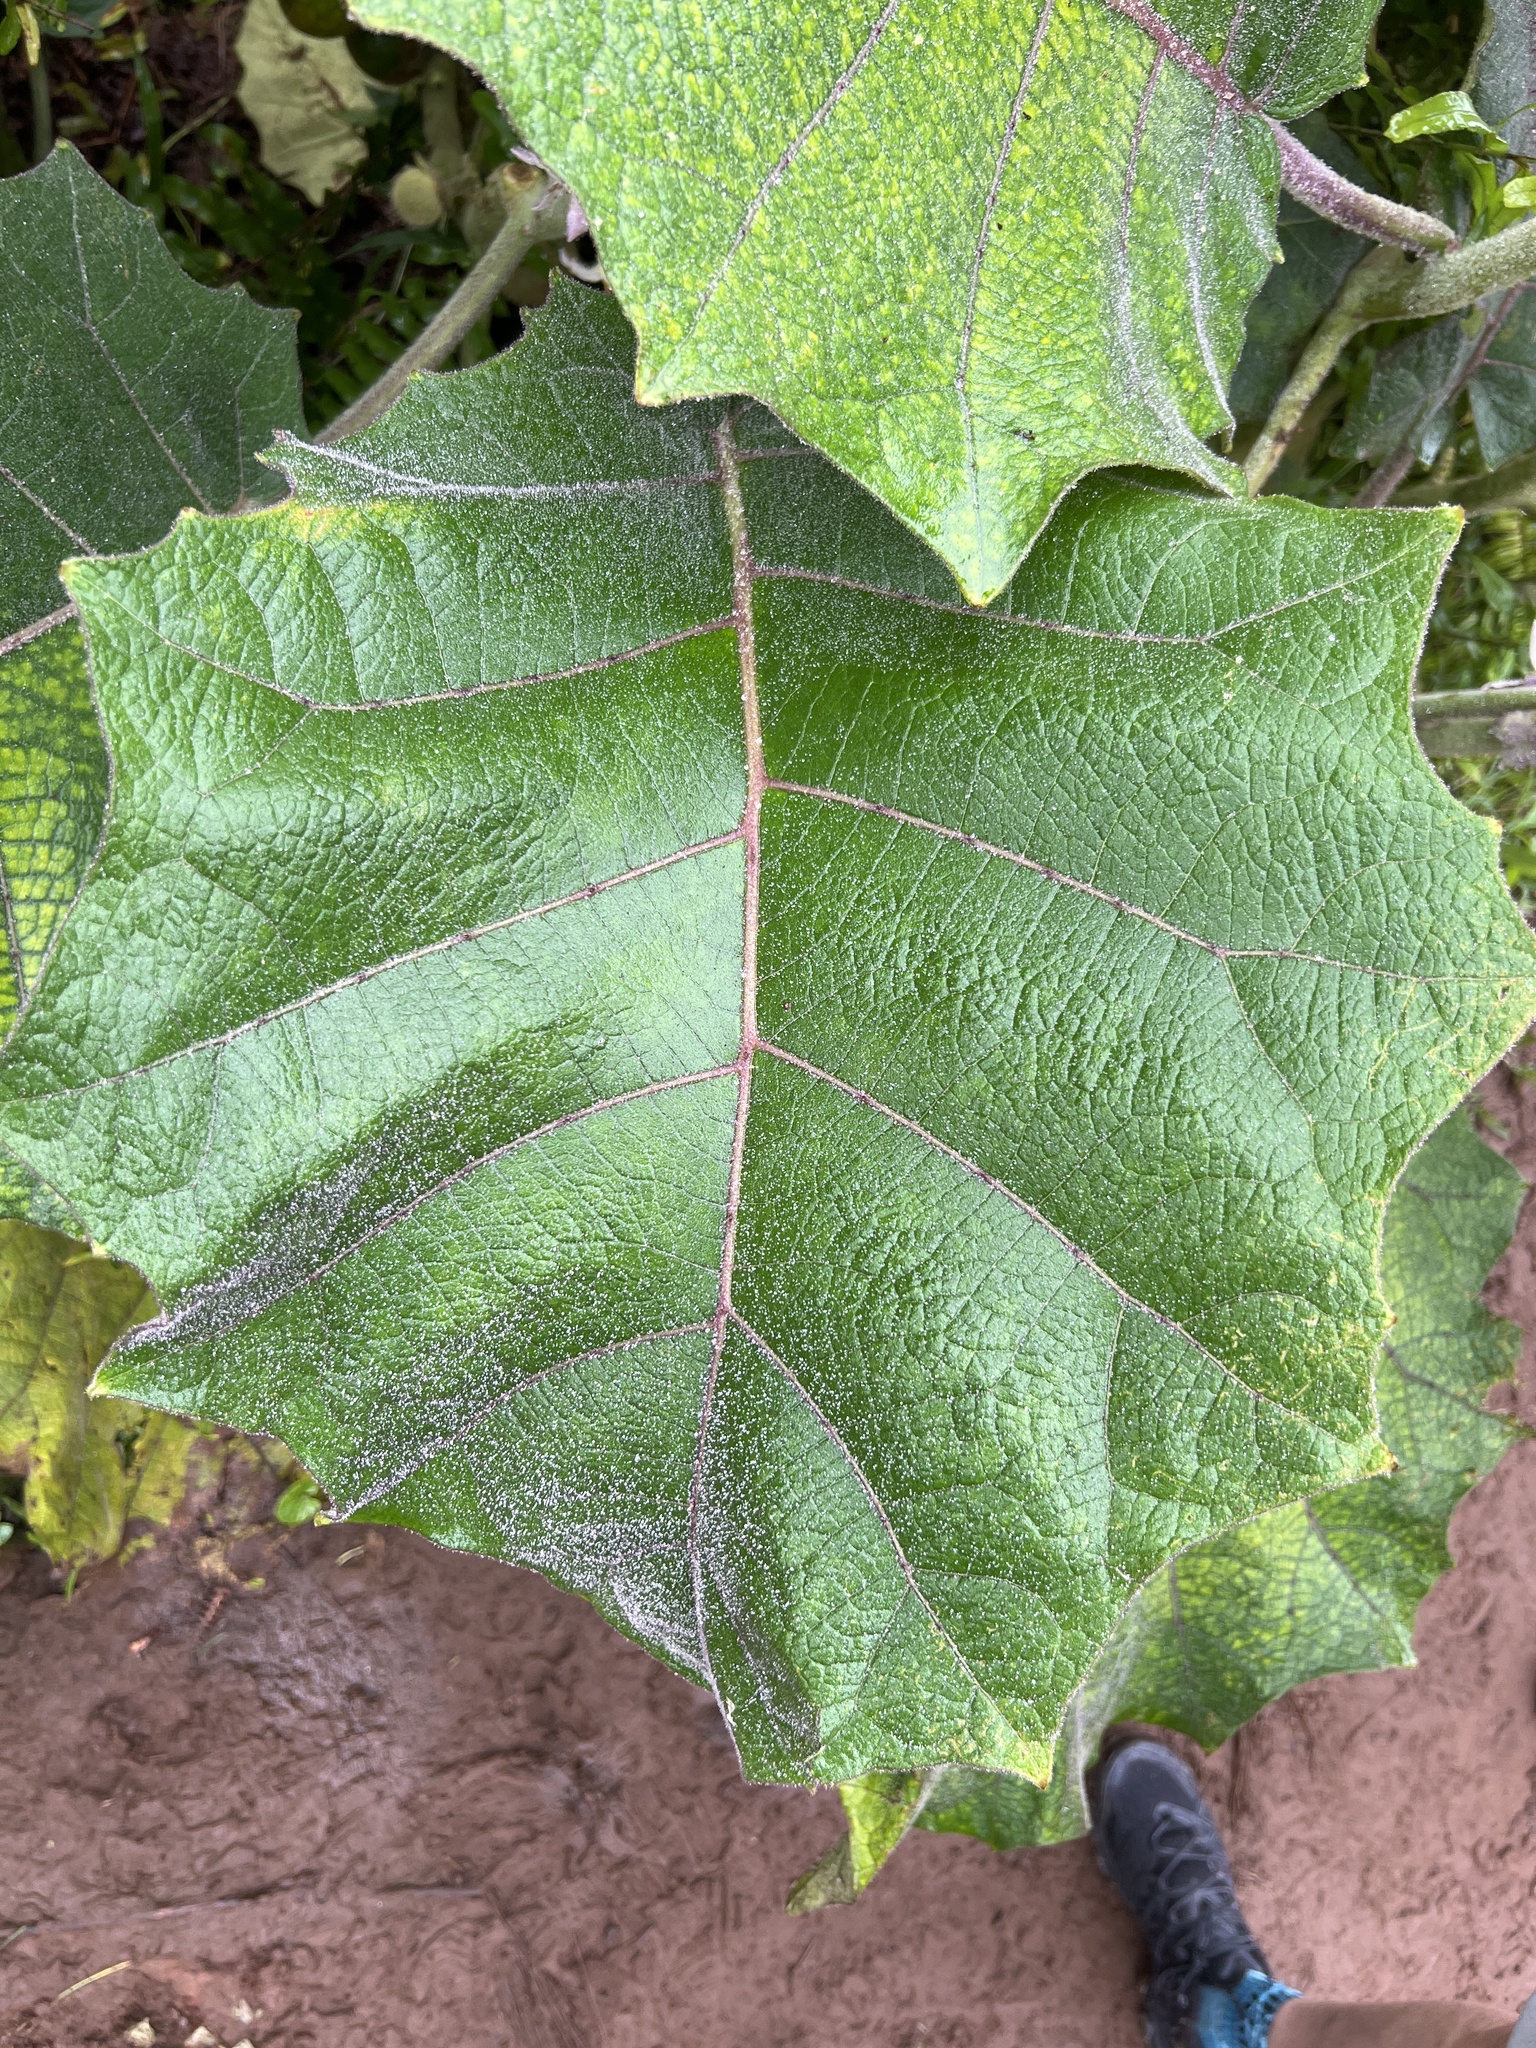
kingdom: Plantae
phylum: Tracheophyta
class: Magnoliopsida
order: Solanales
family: Solanaceae
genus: Solanum
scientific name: Solanum quitoense
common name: Quito-orange
